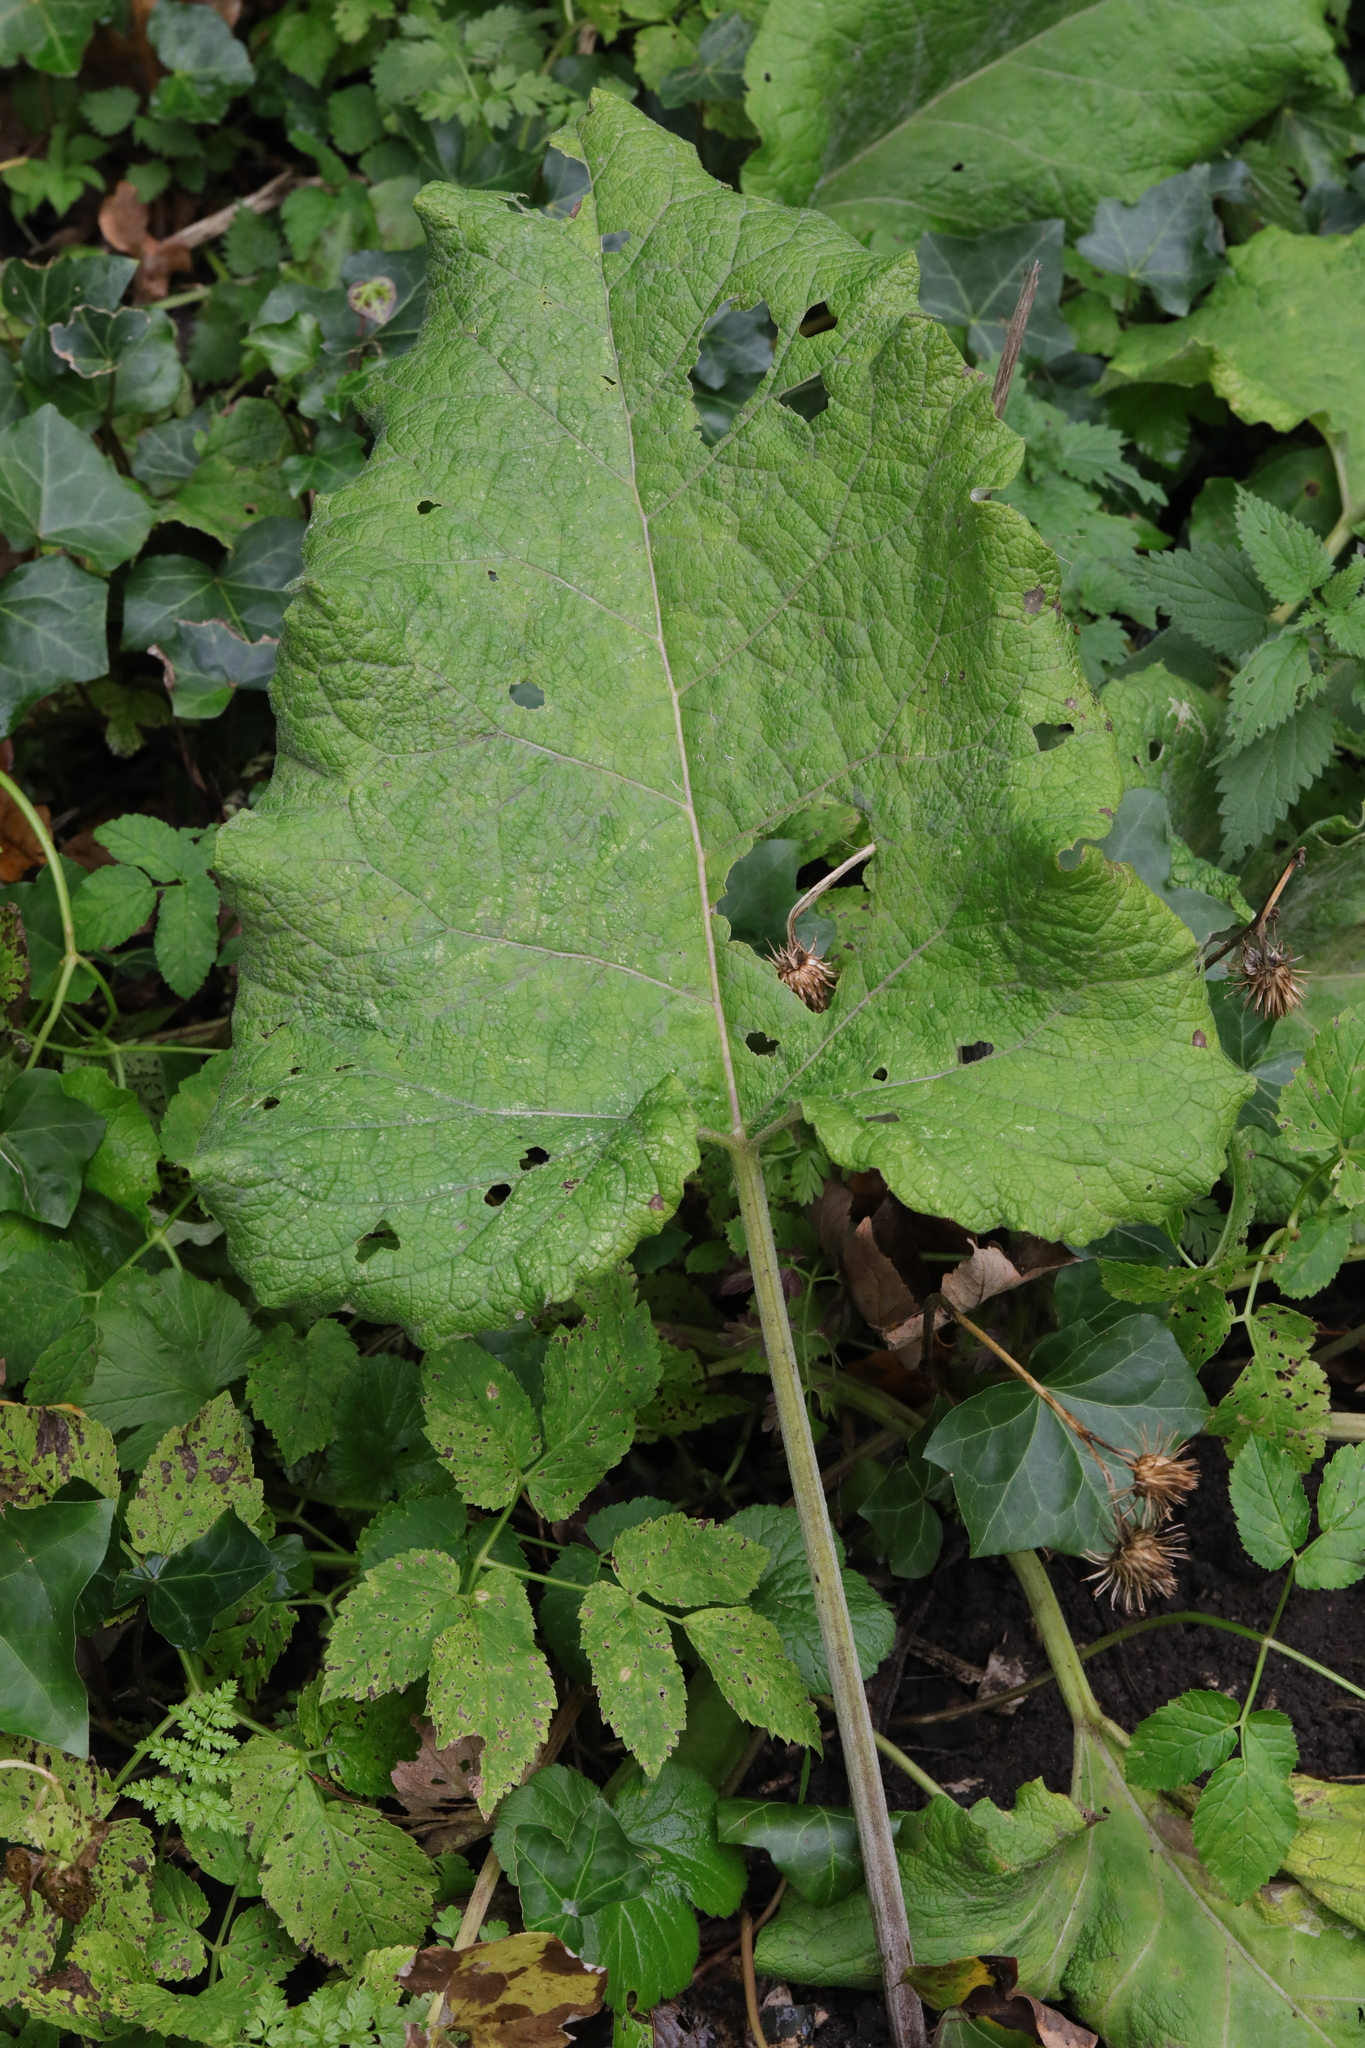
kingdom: Plantae
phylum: Tracheophyta
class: Magnoliopsida
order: Asterales
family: Asteraceae
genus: Arctium
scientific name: Arctium minus
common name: Lesser burdock
